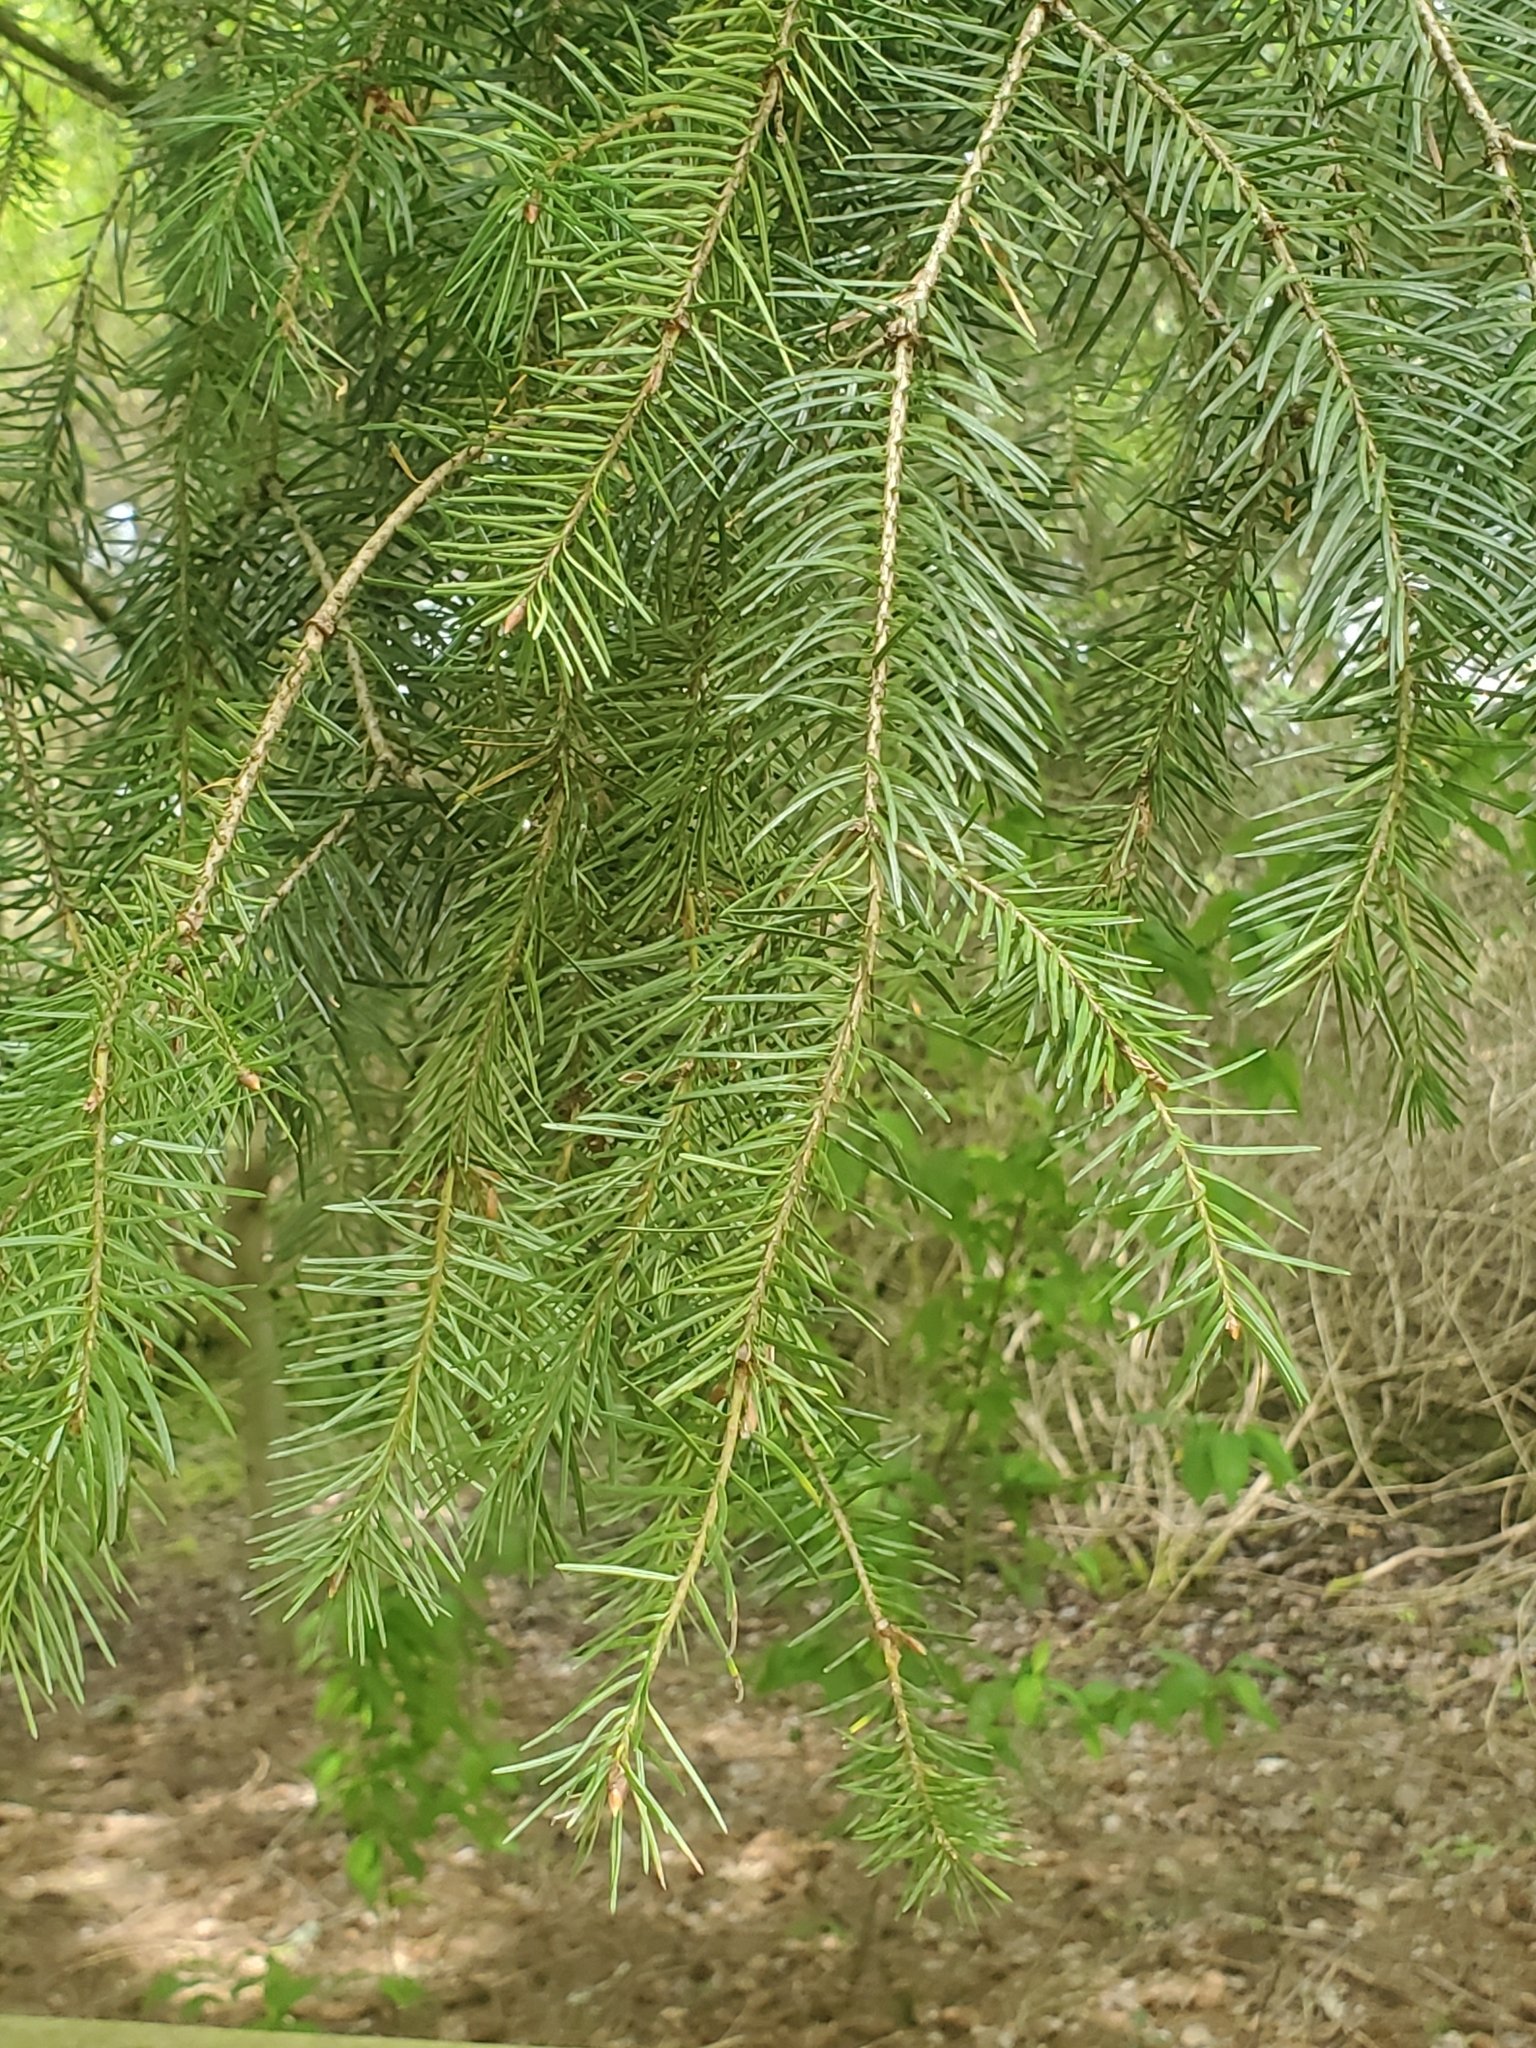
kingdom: Plantae
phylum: Tracheophyta
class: Pinopsida
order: Pinales
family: Pinaceae
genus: Pseudotsuga
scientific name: Pseudotsuga menziesii
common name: Douglas fir
